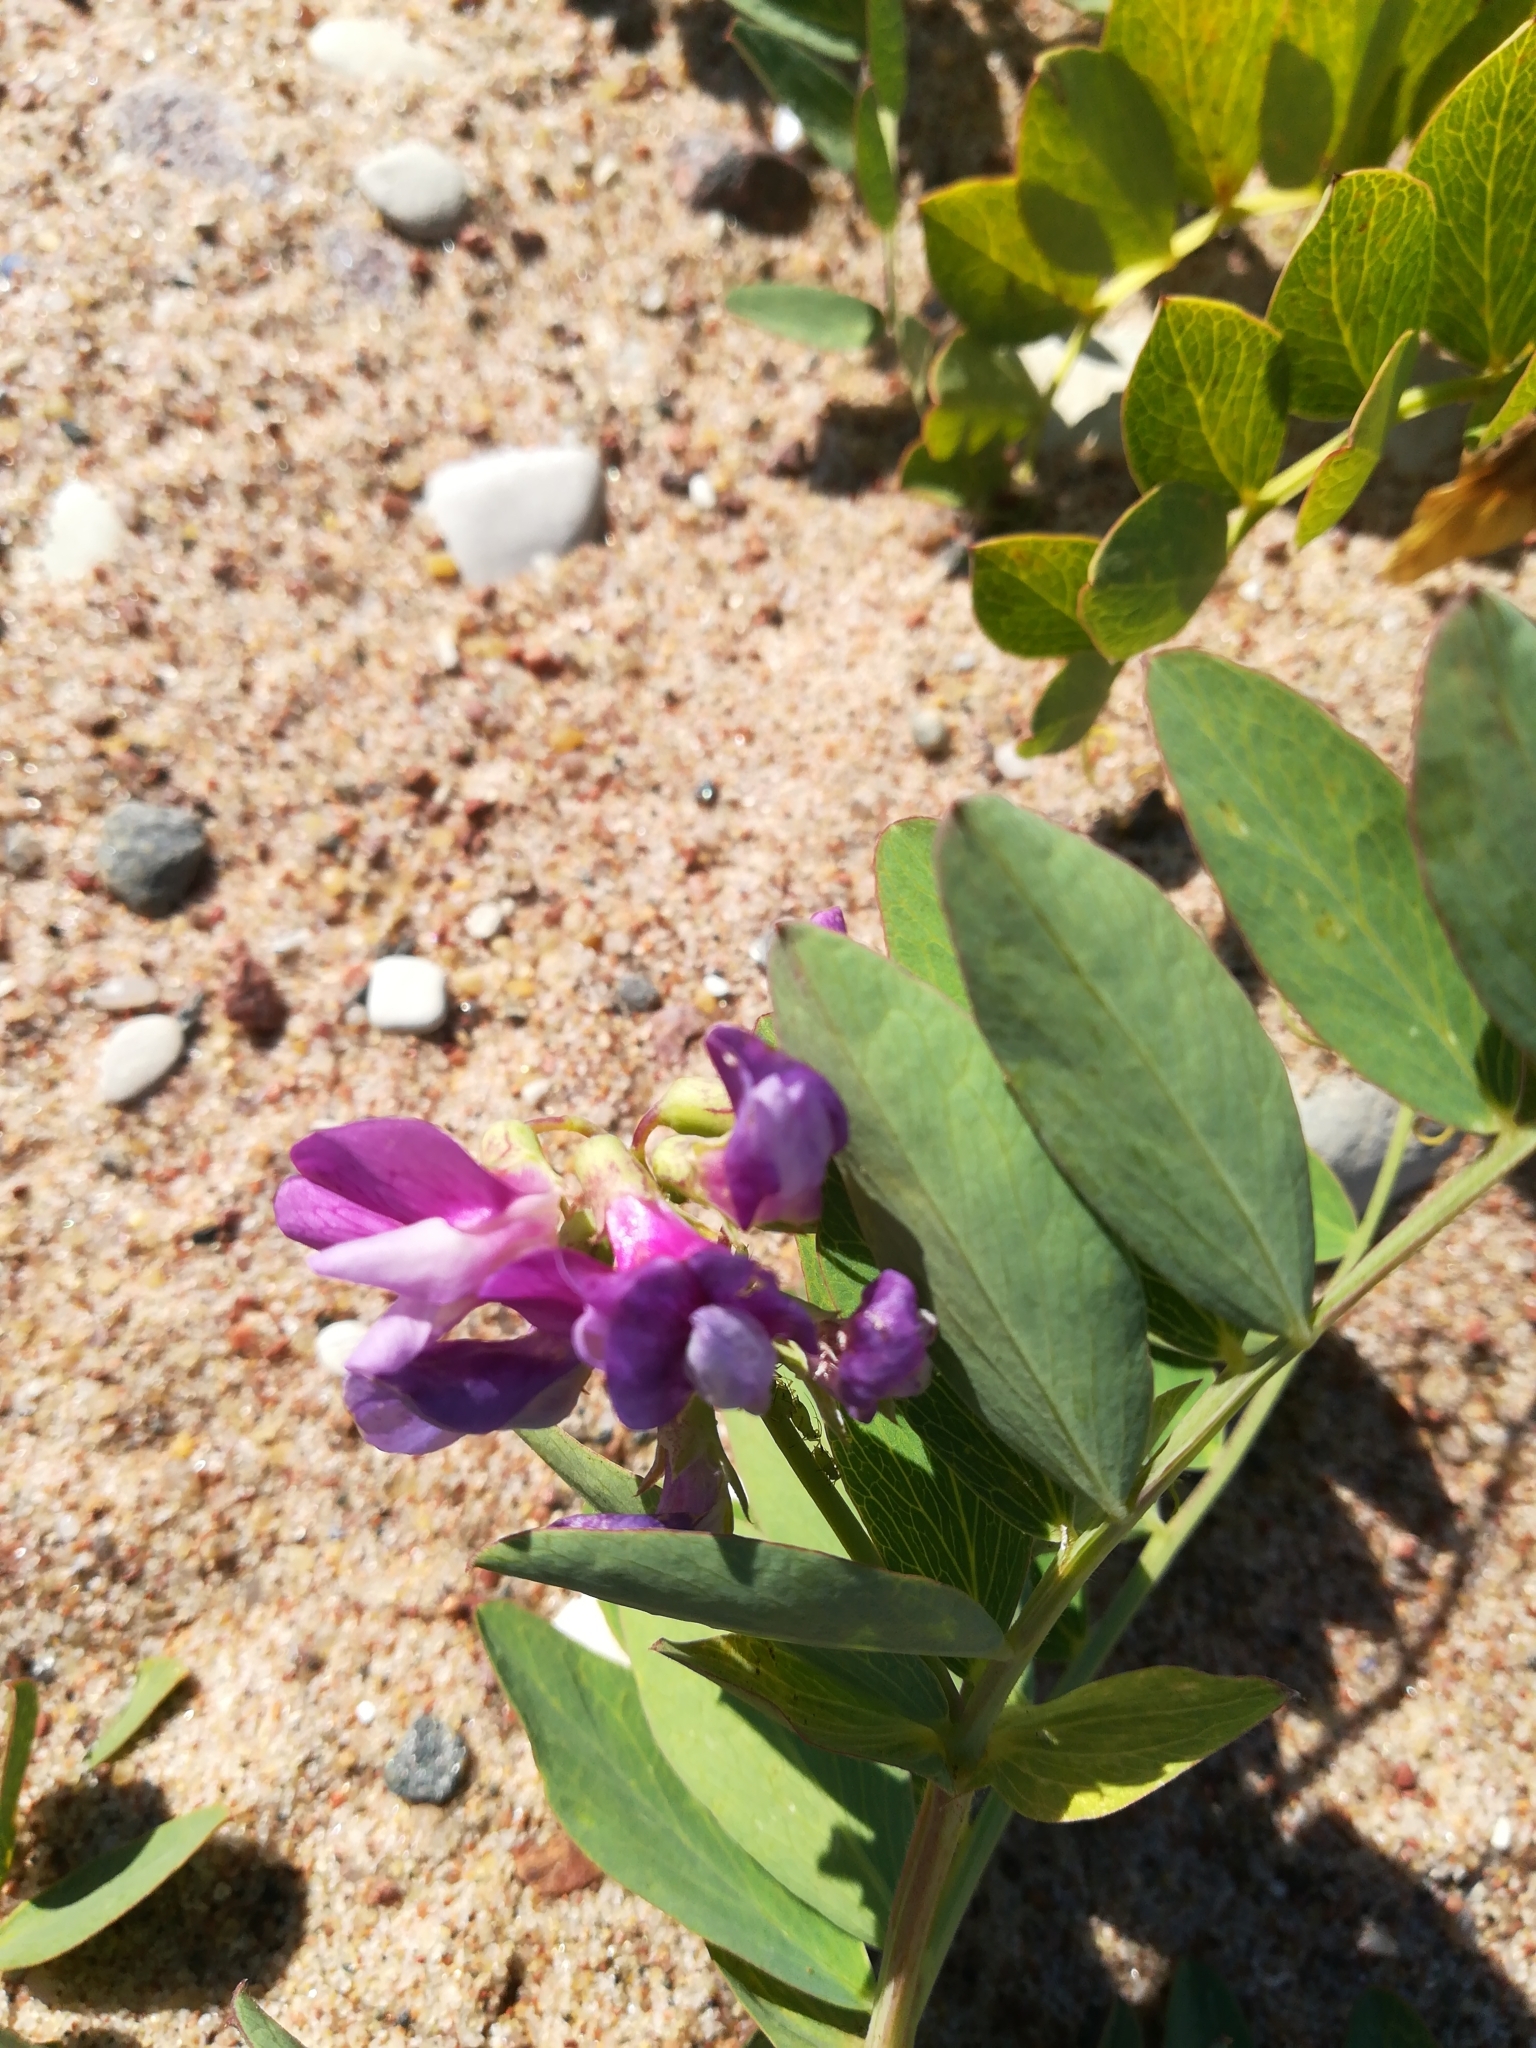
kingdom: Plantae
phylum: Tracheophyta
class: Magnoliopsida
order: Fabales
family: Fabaceae
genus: Lathyrus
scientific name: Lathyrus japonicus
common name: Sea pea
